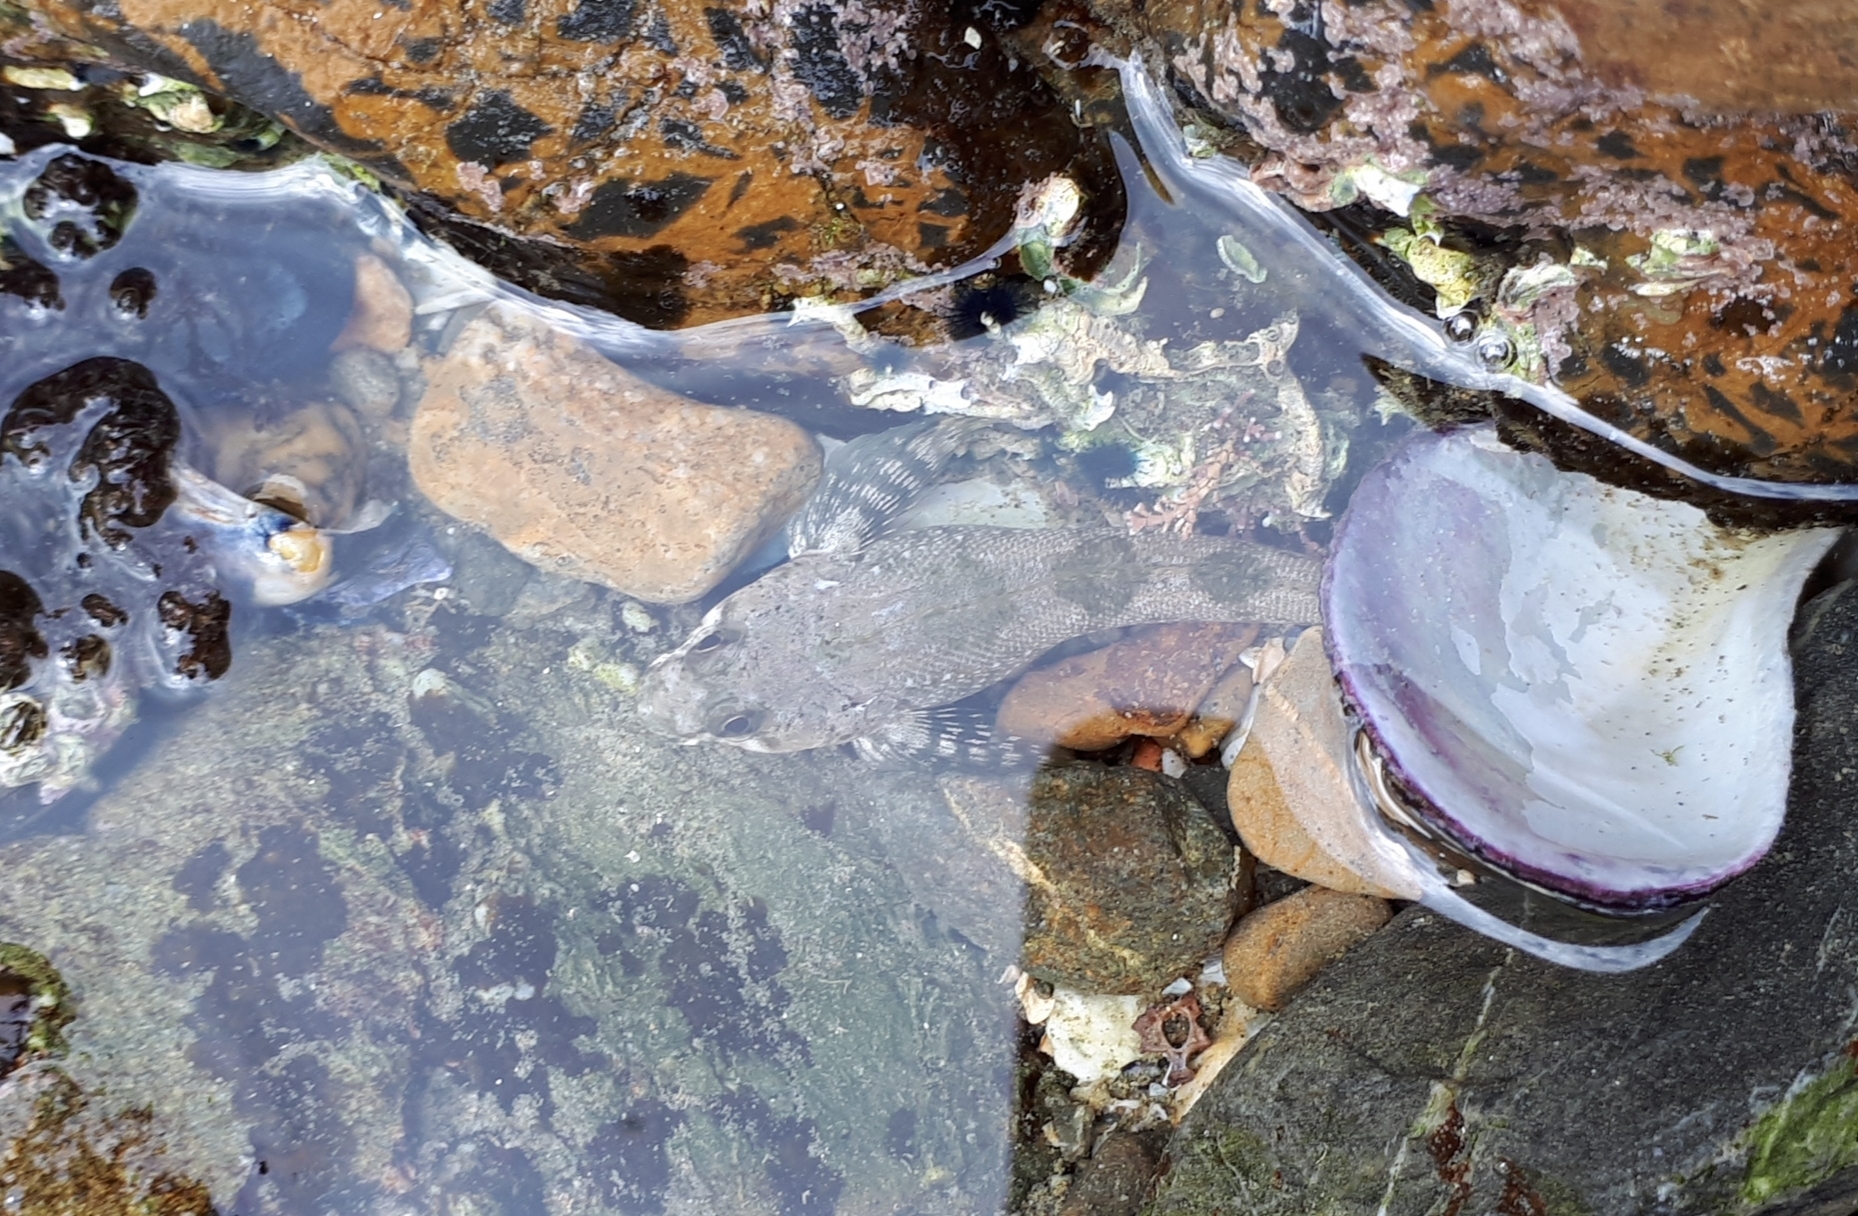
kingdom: Animalia
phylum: Chordata
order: Perciformes
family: Tripterygiidae
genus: Bellapiscis
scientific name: Bellapiscis medius
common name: Twister
